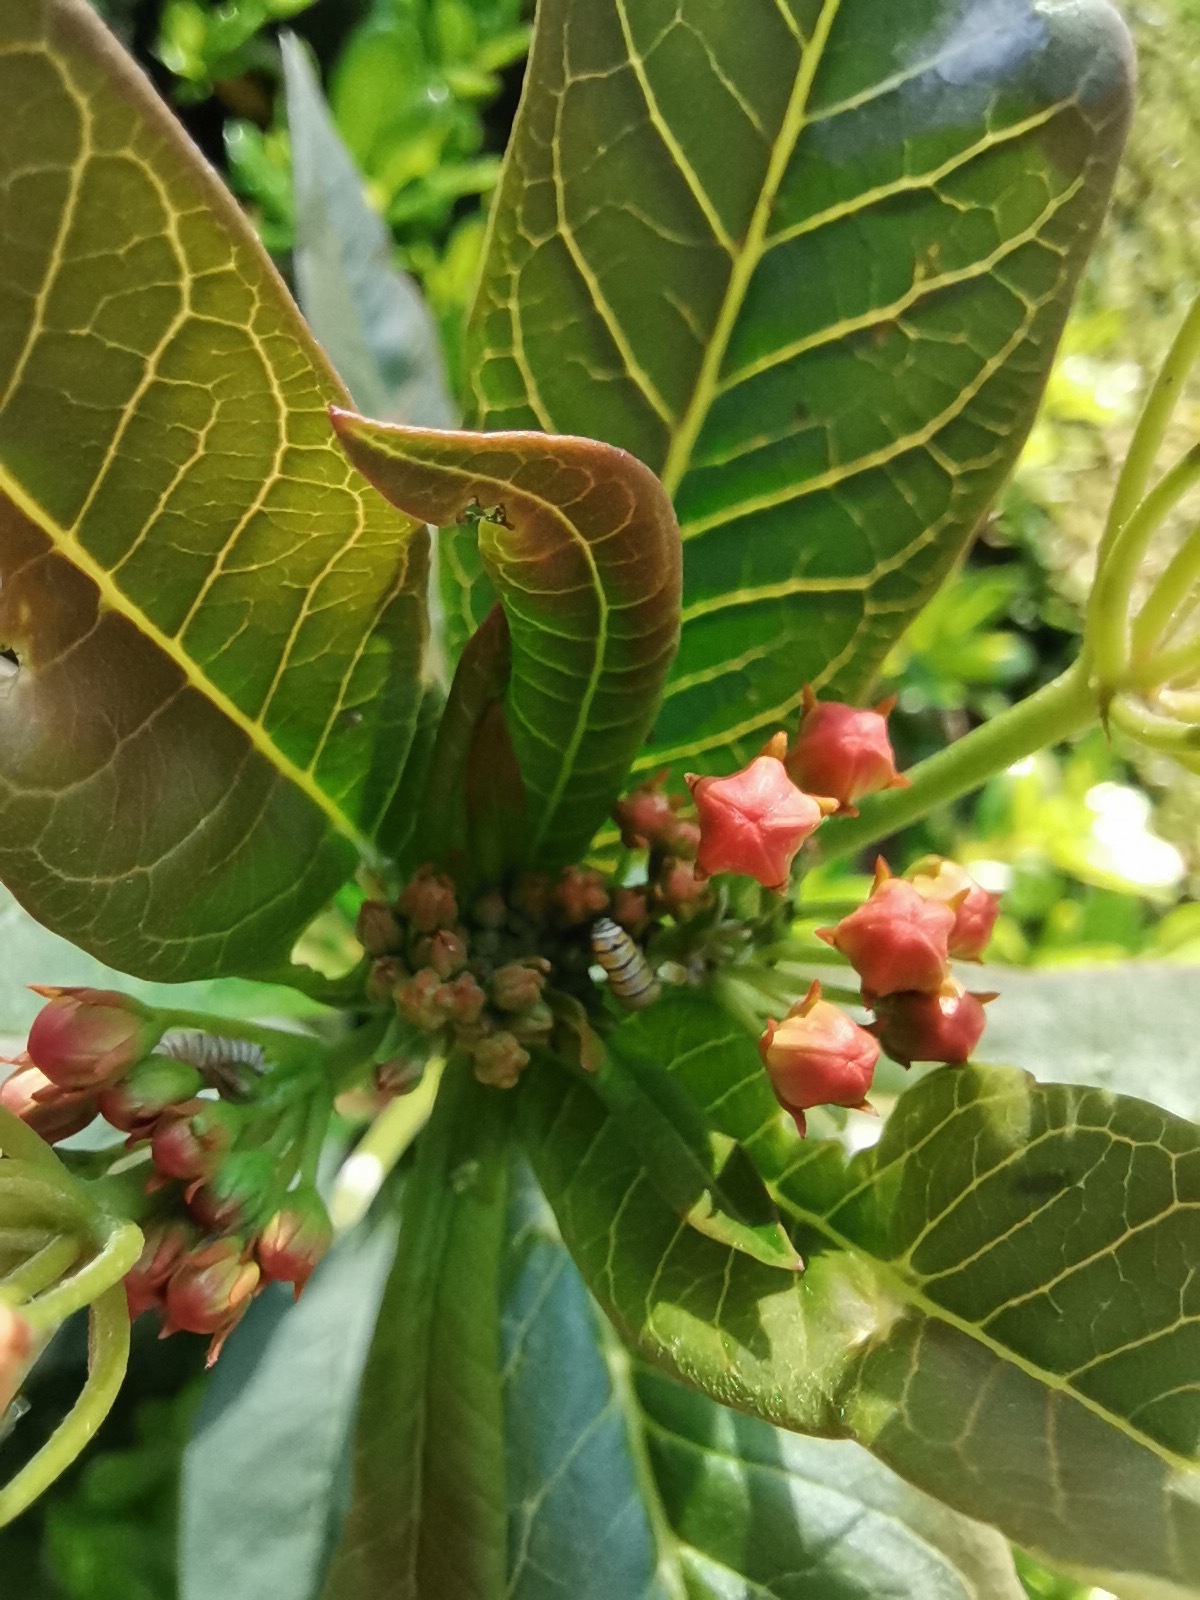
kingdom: Animalia
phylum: Arthropoda
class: Insecta
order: Lepidoptera
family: Nymphalidae
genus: Danaus
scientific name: Danaus plexippus
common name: Monarch
